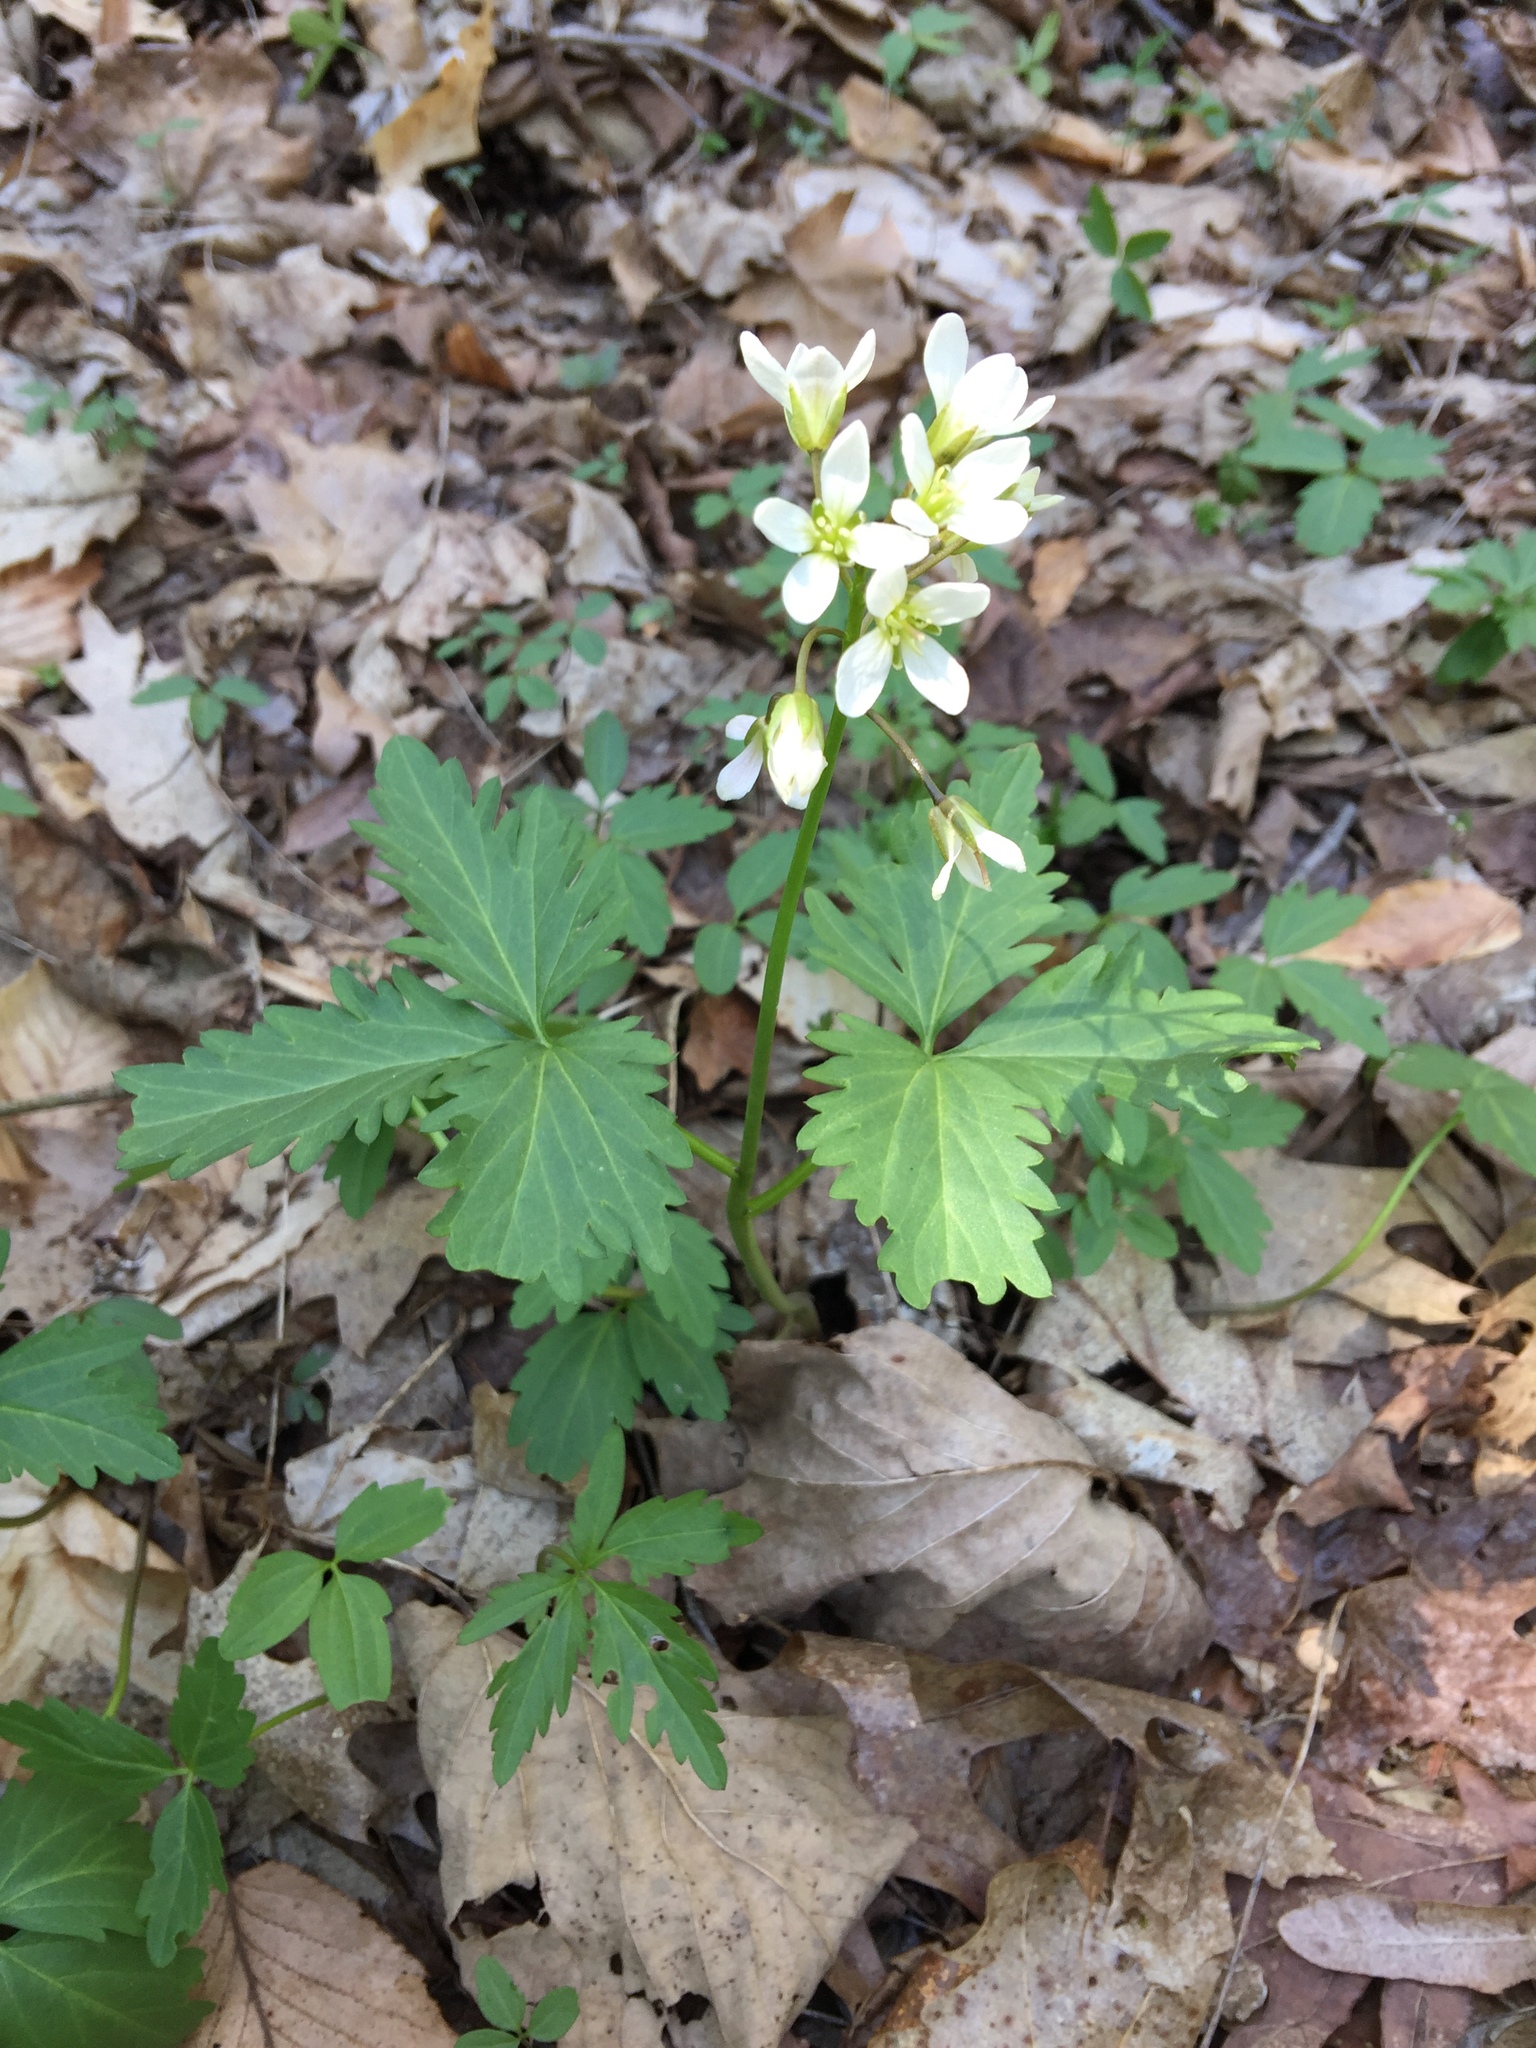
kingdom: Plantae
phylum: Tracheophyta
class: Magnoliopsida
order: Brassicales
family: Brassicaceae
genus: Cardamine
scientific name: Cardamine diphylla
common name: Broad-leaved toothwort
